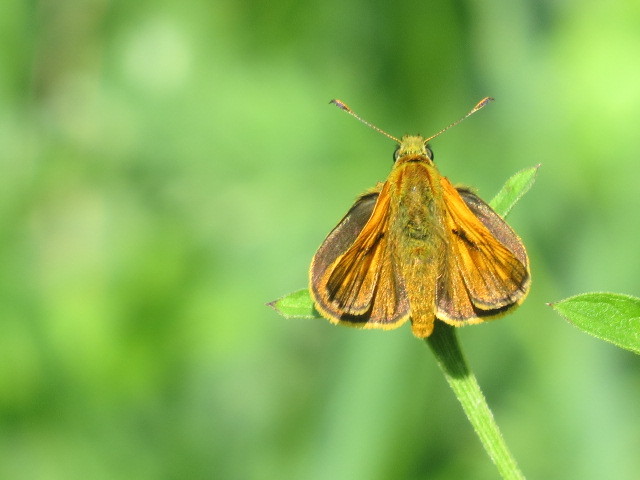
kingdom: Animalia
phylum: Arthropoda
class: Insecta
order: Lepidoptera
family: Hesperiidae
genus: Ochlodes
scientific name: Ochlodes venata
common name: Large skipper
